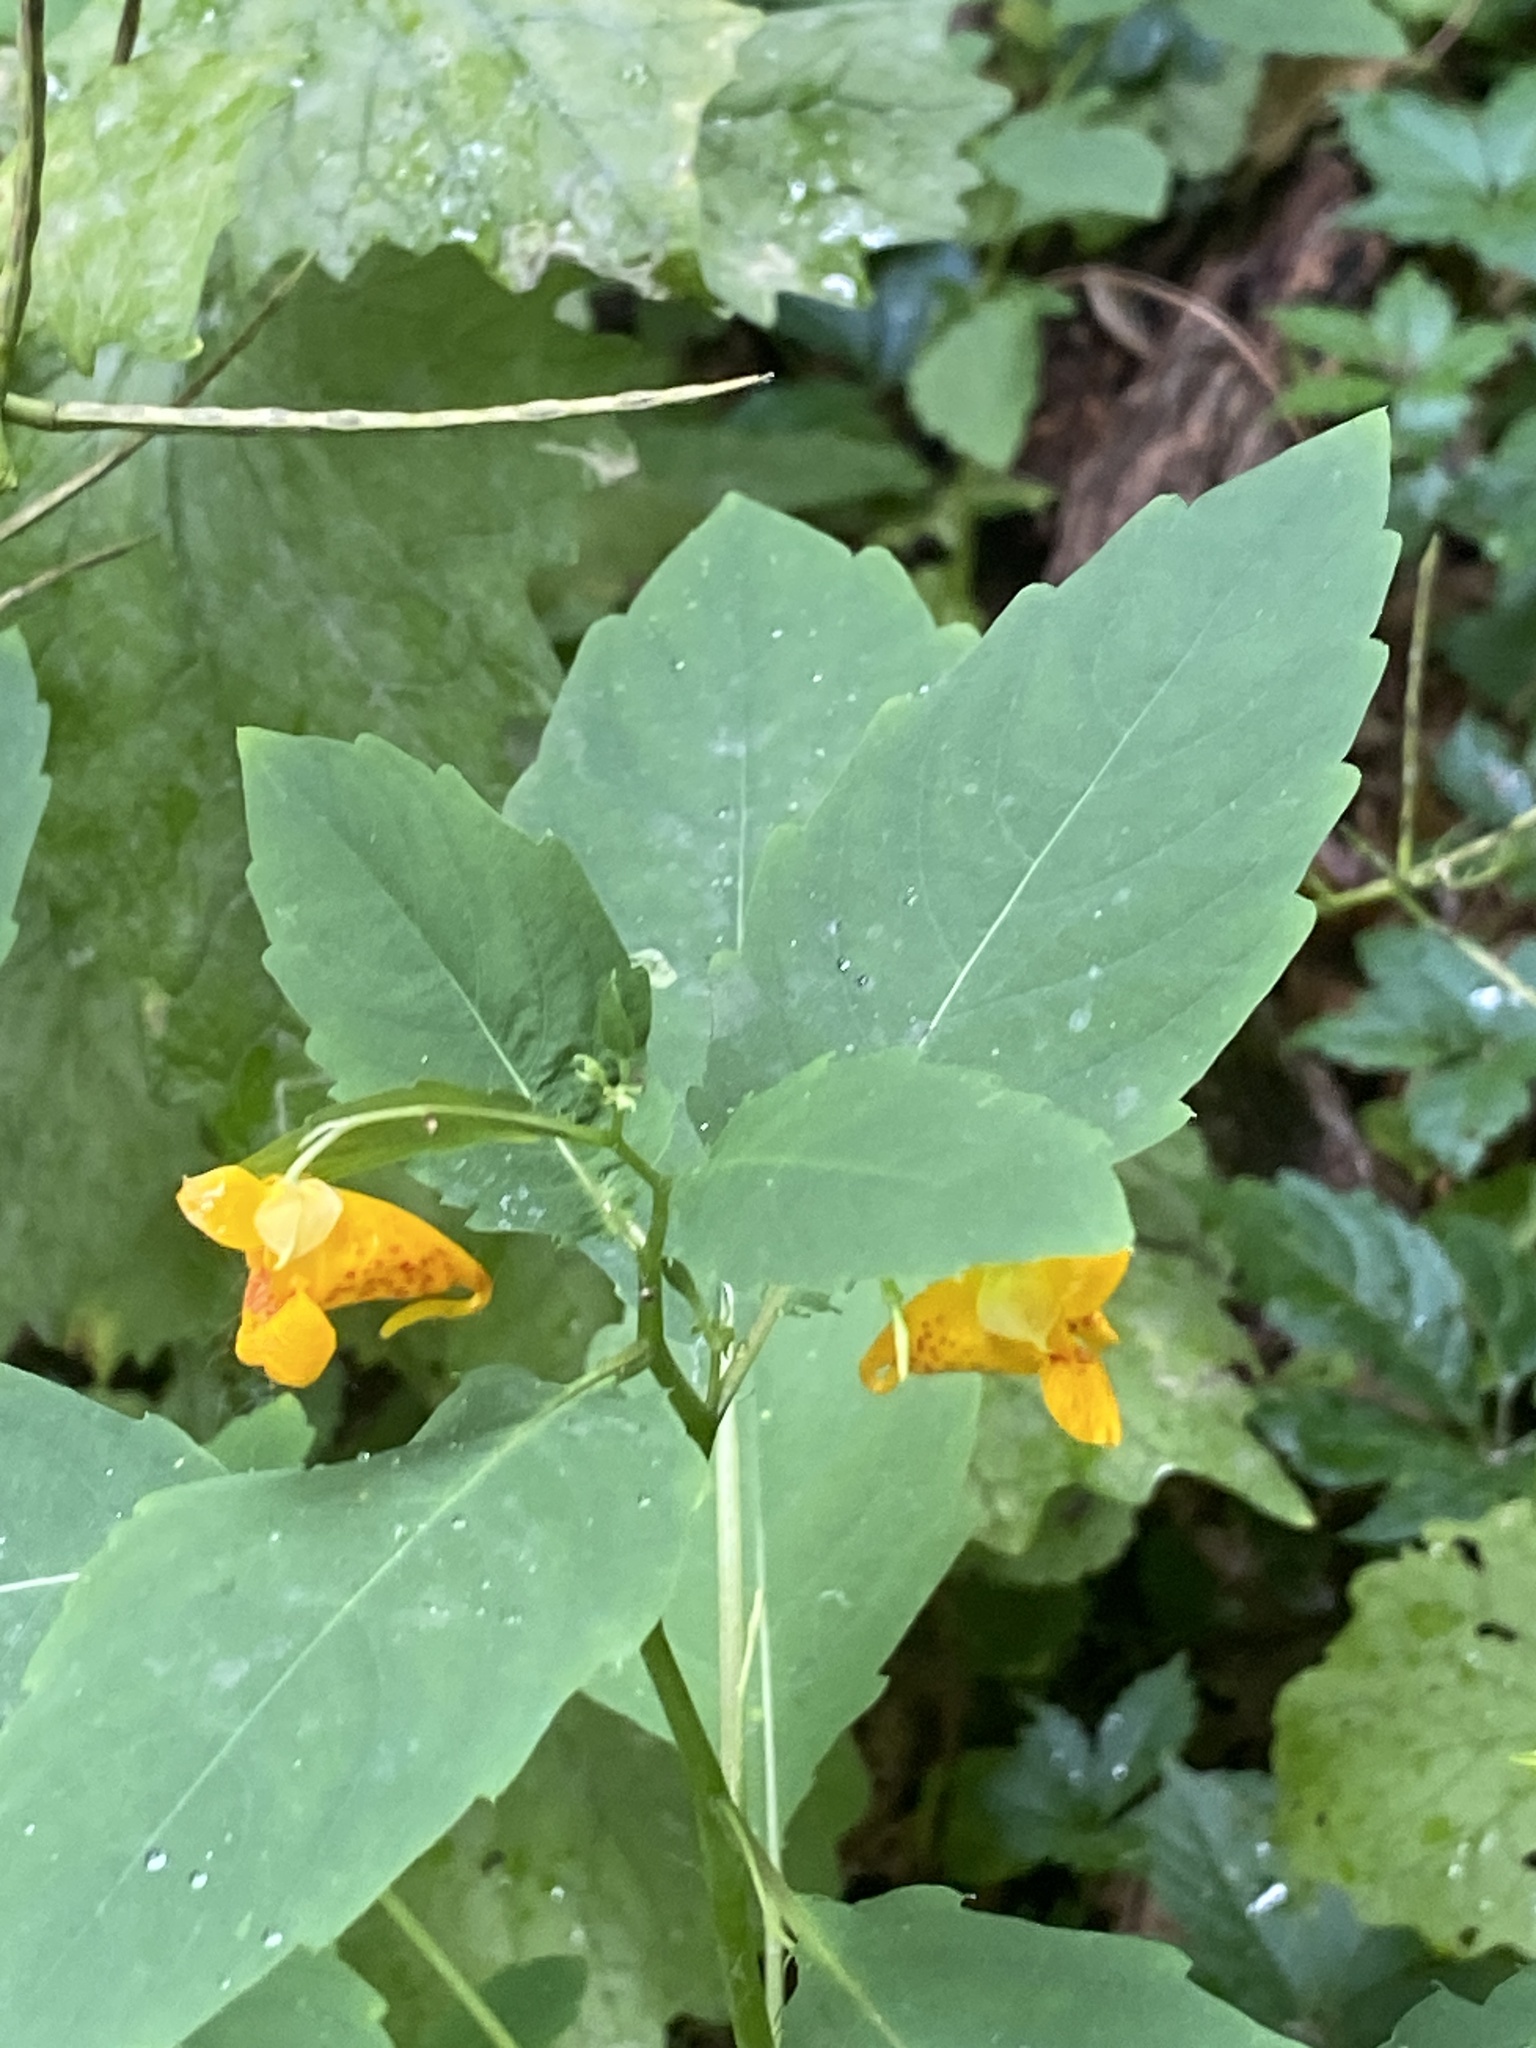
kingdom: Plantae
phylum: Tracheophyta
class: Magnoliopsida
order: Ericales
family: Balsaminaceae
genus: Impatiens
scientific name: Impatiens capensis
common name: Orange balsam
